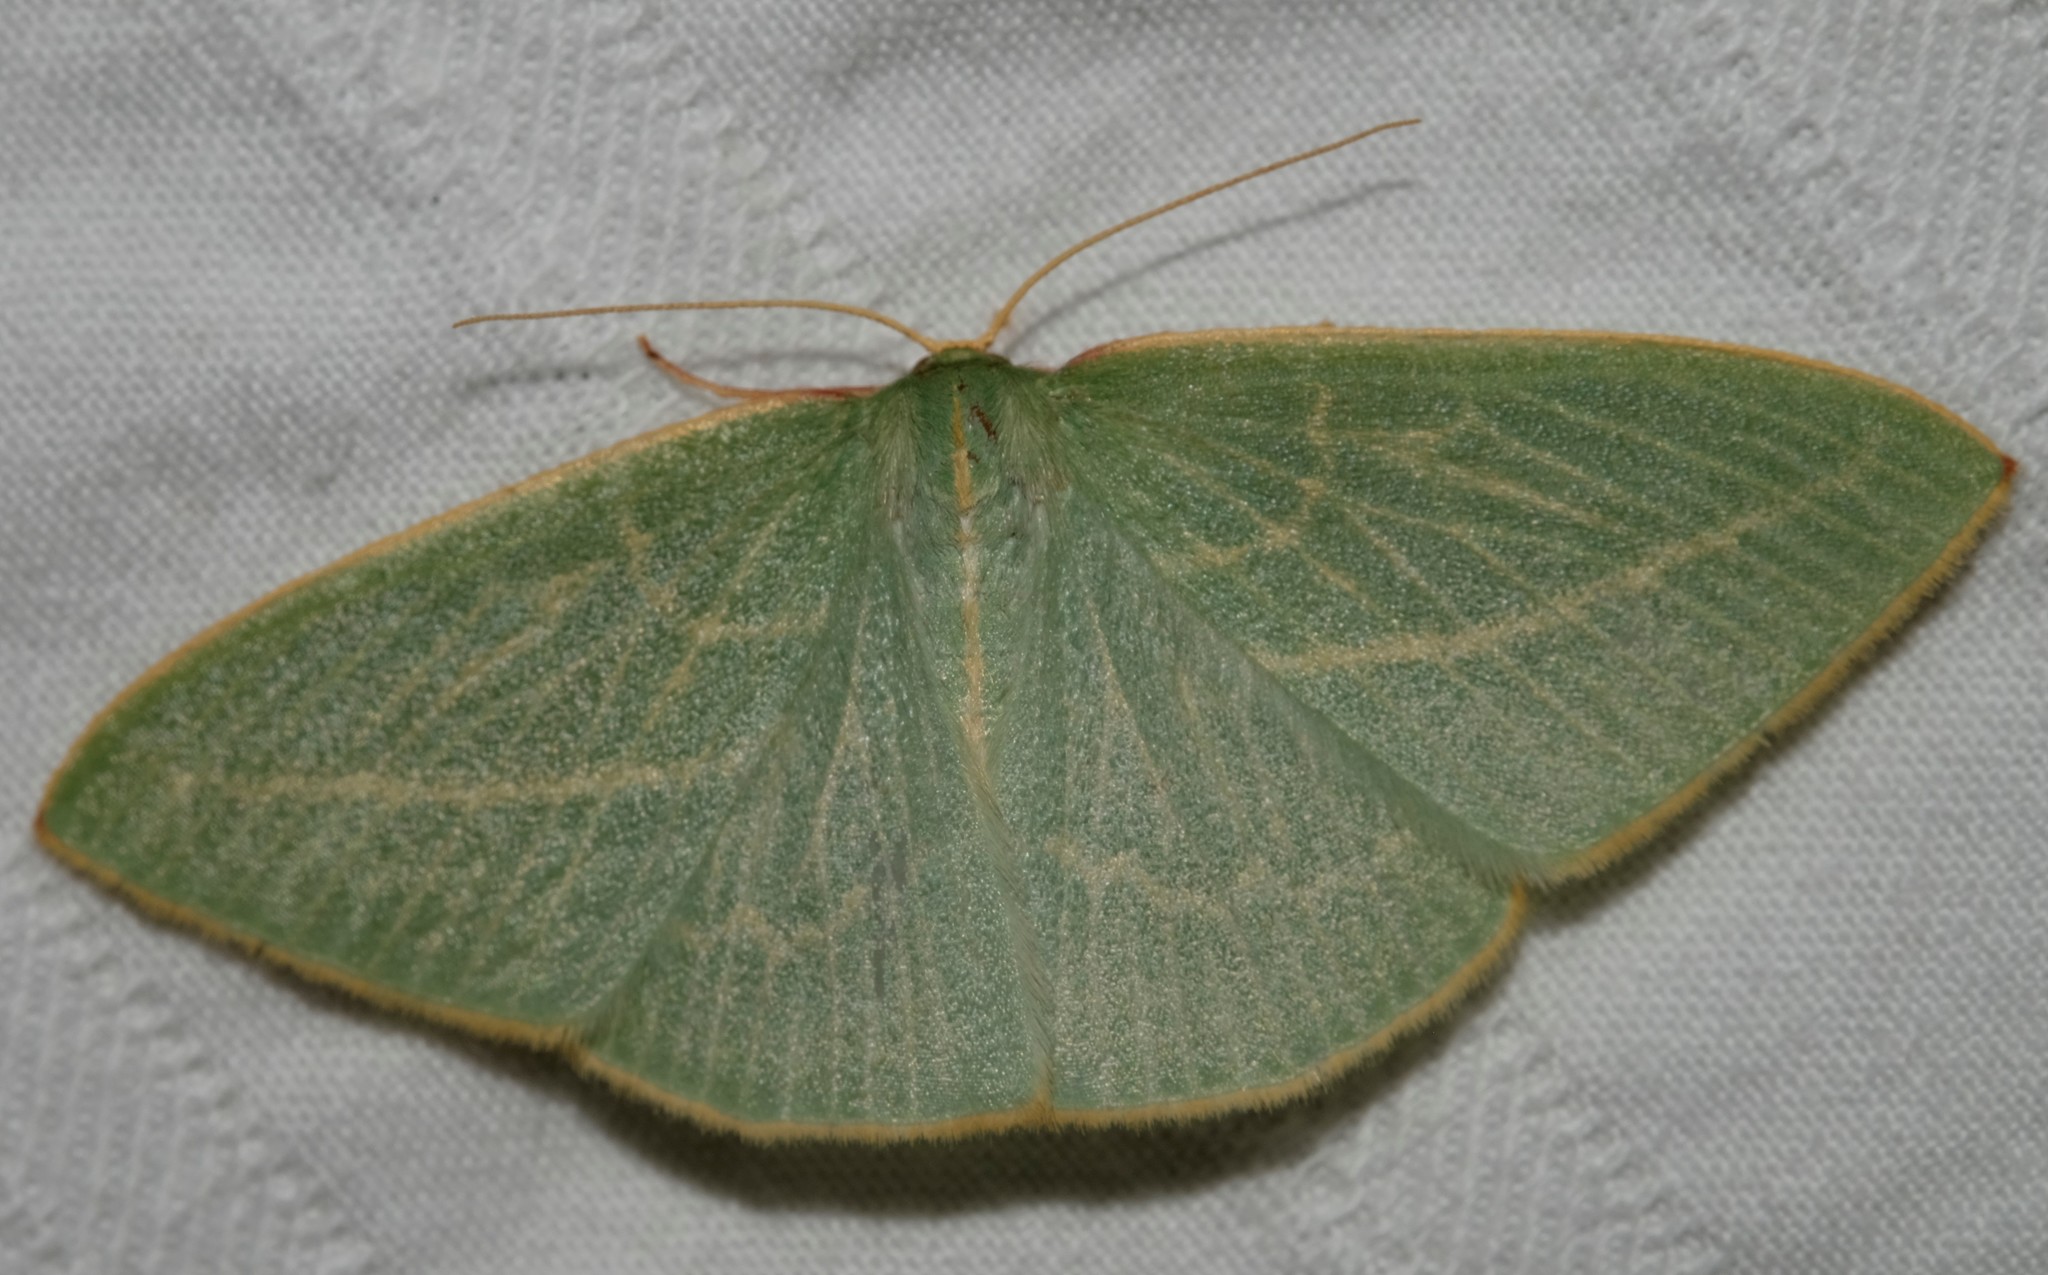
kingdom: Animalia
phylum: Arthropoda
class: Insecta
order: Lepidoptera
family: Geometridae
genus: Chlorocoma
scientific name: Chlorocoma carenaria
